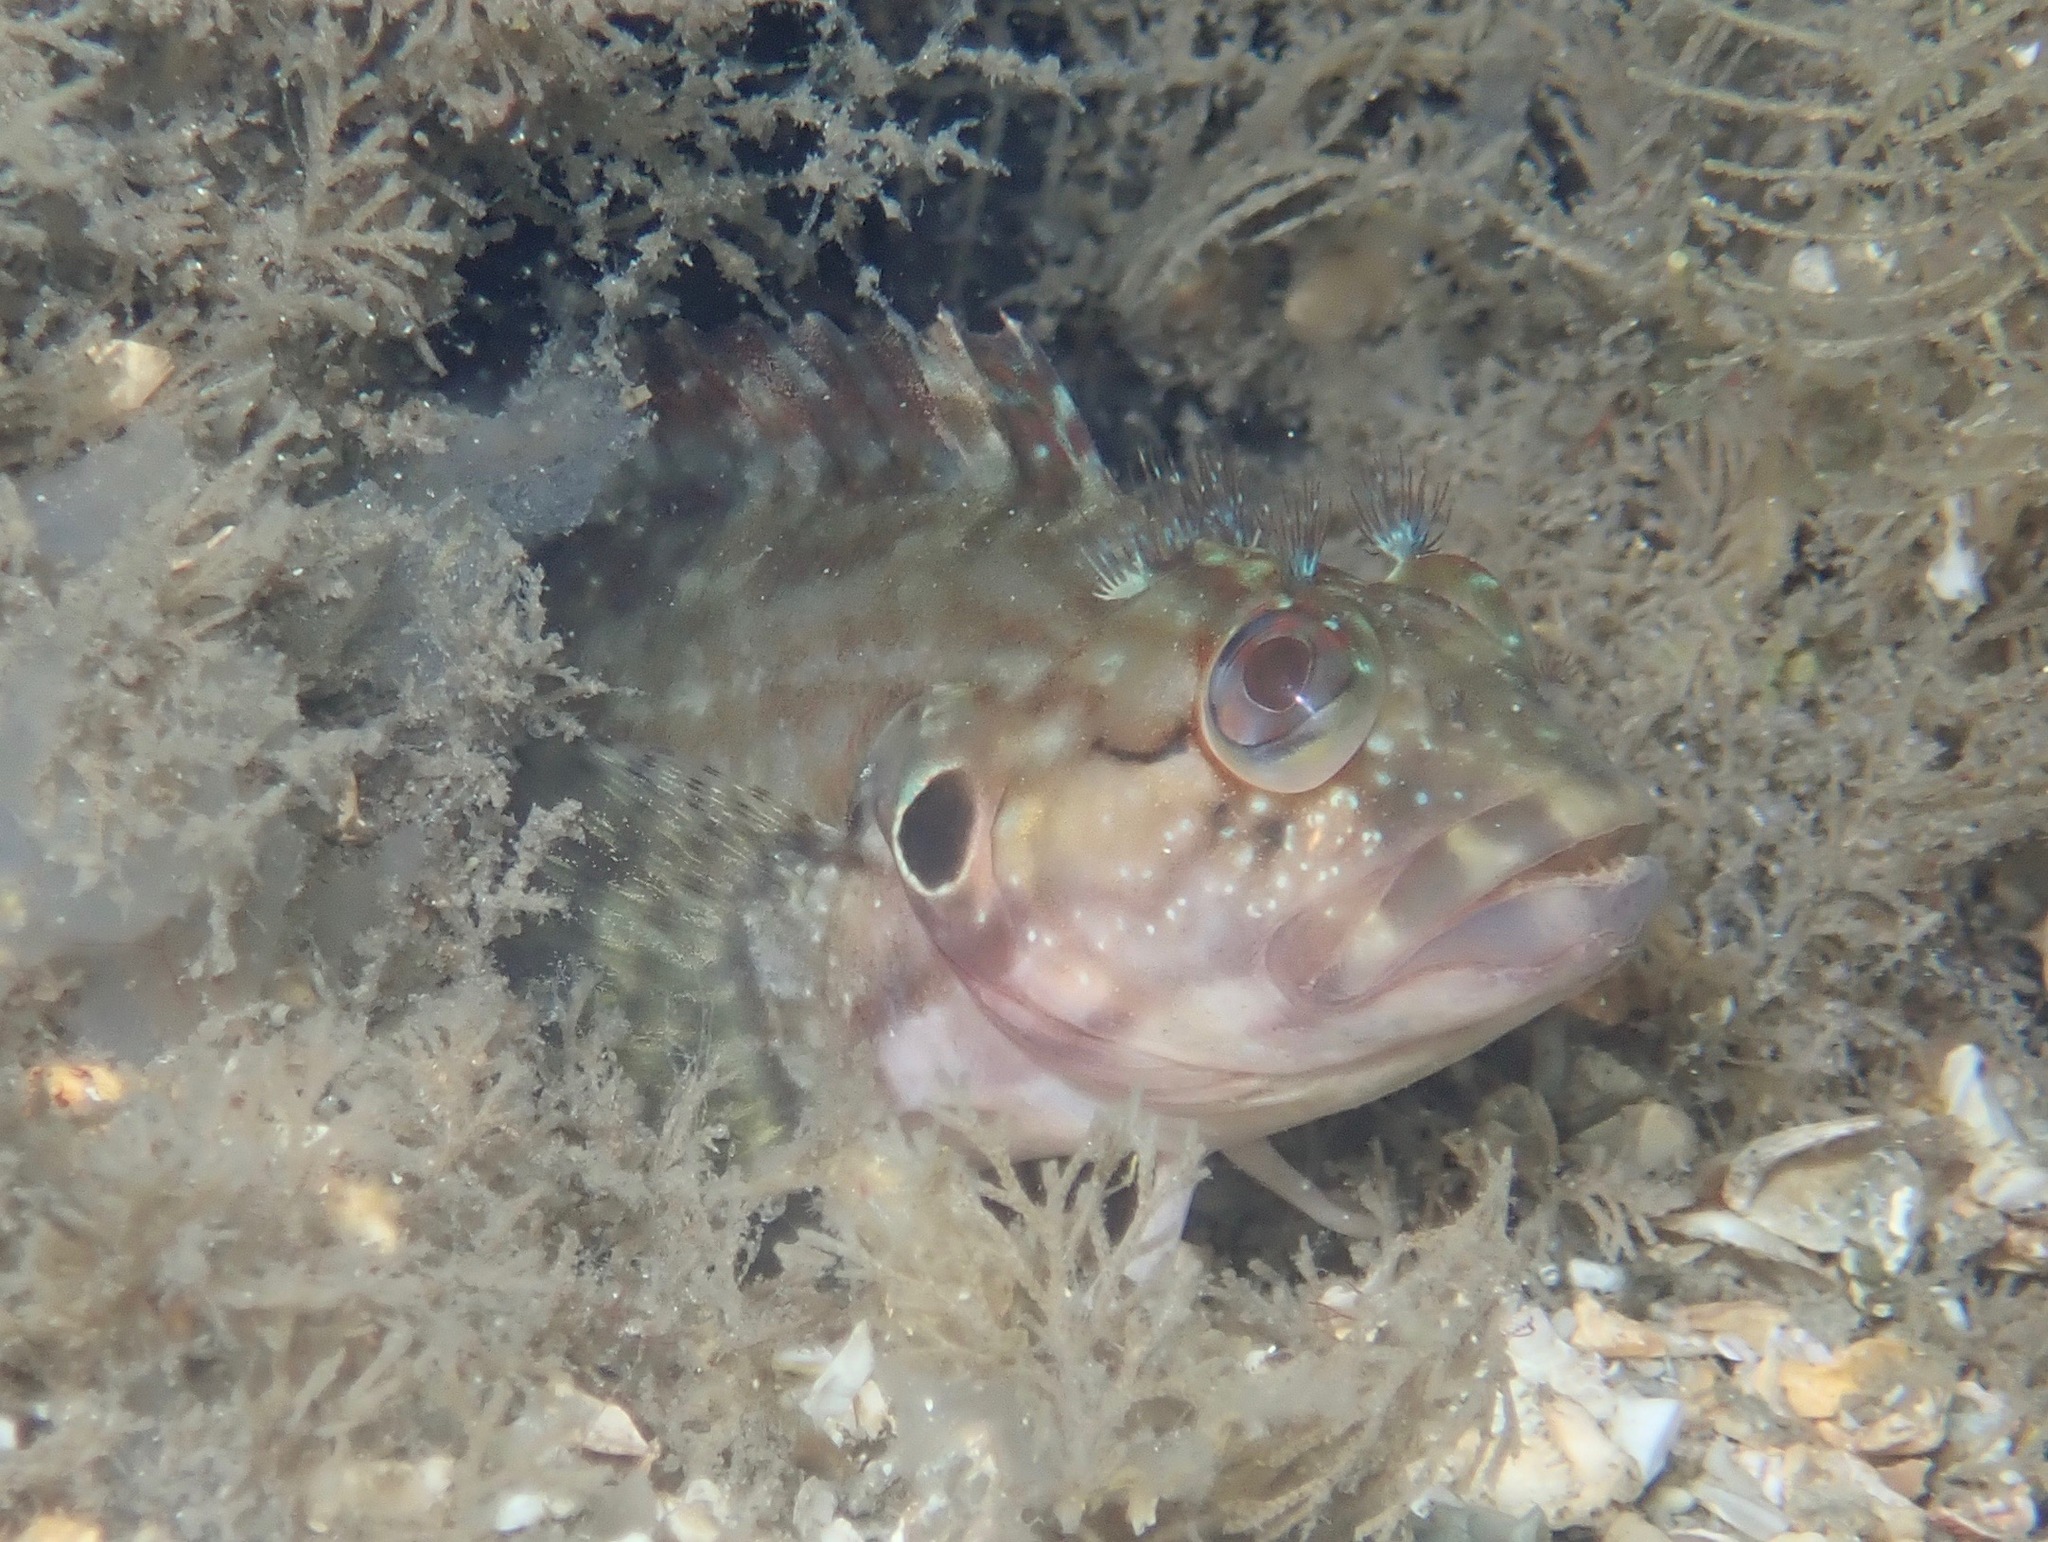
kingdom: Animalia
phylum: Chordata
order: Perciformes
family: Labrisomidae
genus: Labrisomus
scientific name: Labrisomus conditus
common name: Masquerader hairy blenny
